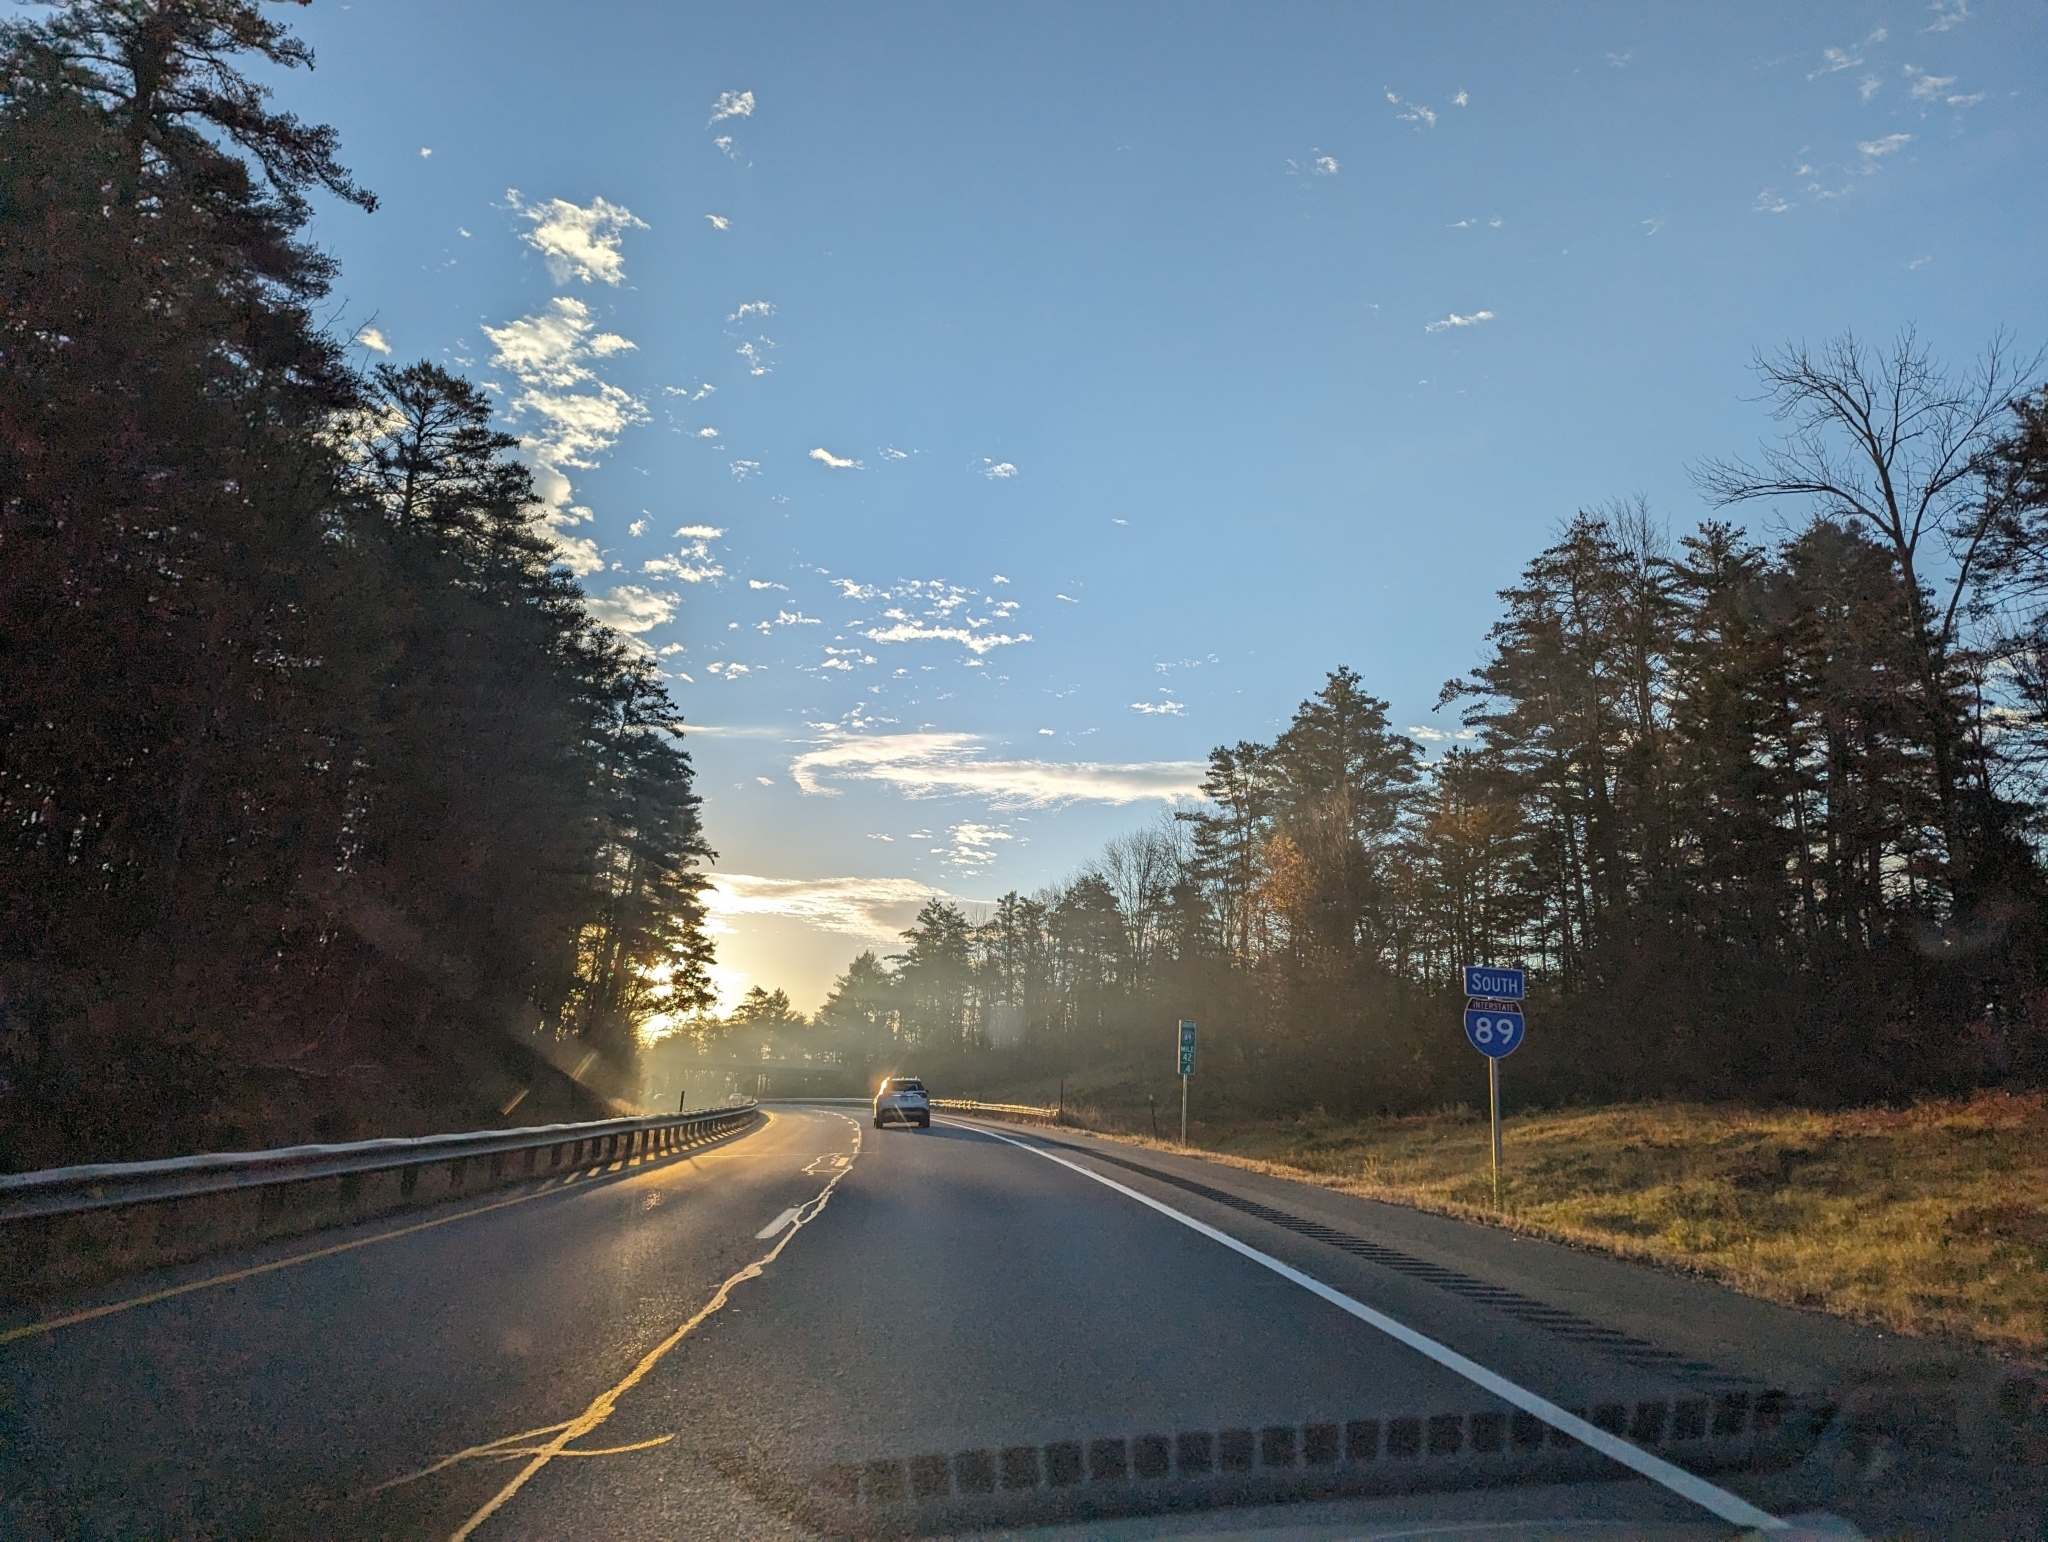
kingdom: Plantae
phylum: Tracheophyta
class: Pinopsida
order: Pinales
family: Pinaceae
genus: Pinus
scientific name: Pinus strobus
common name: Weymouth pine
